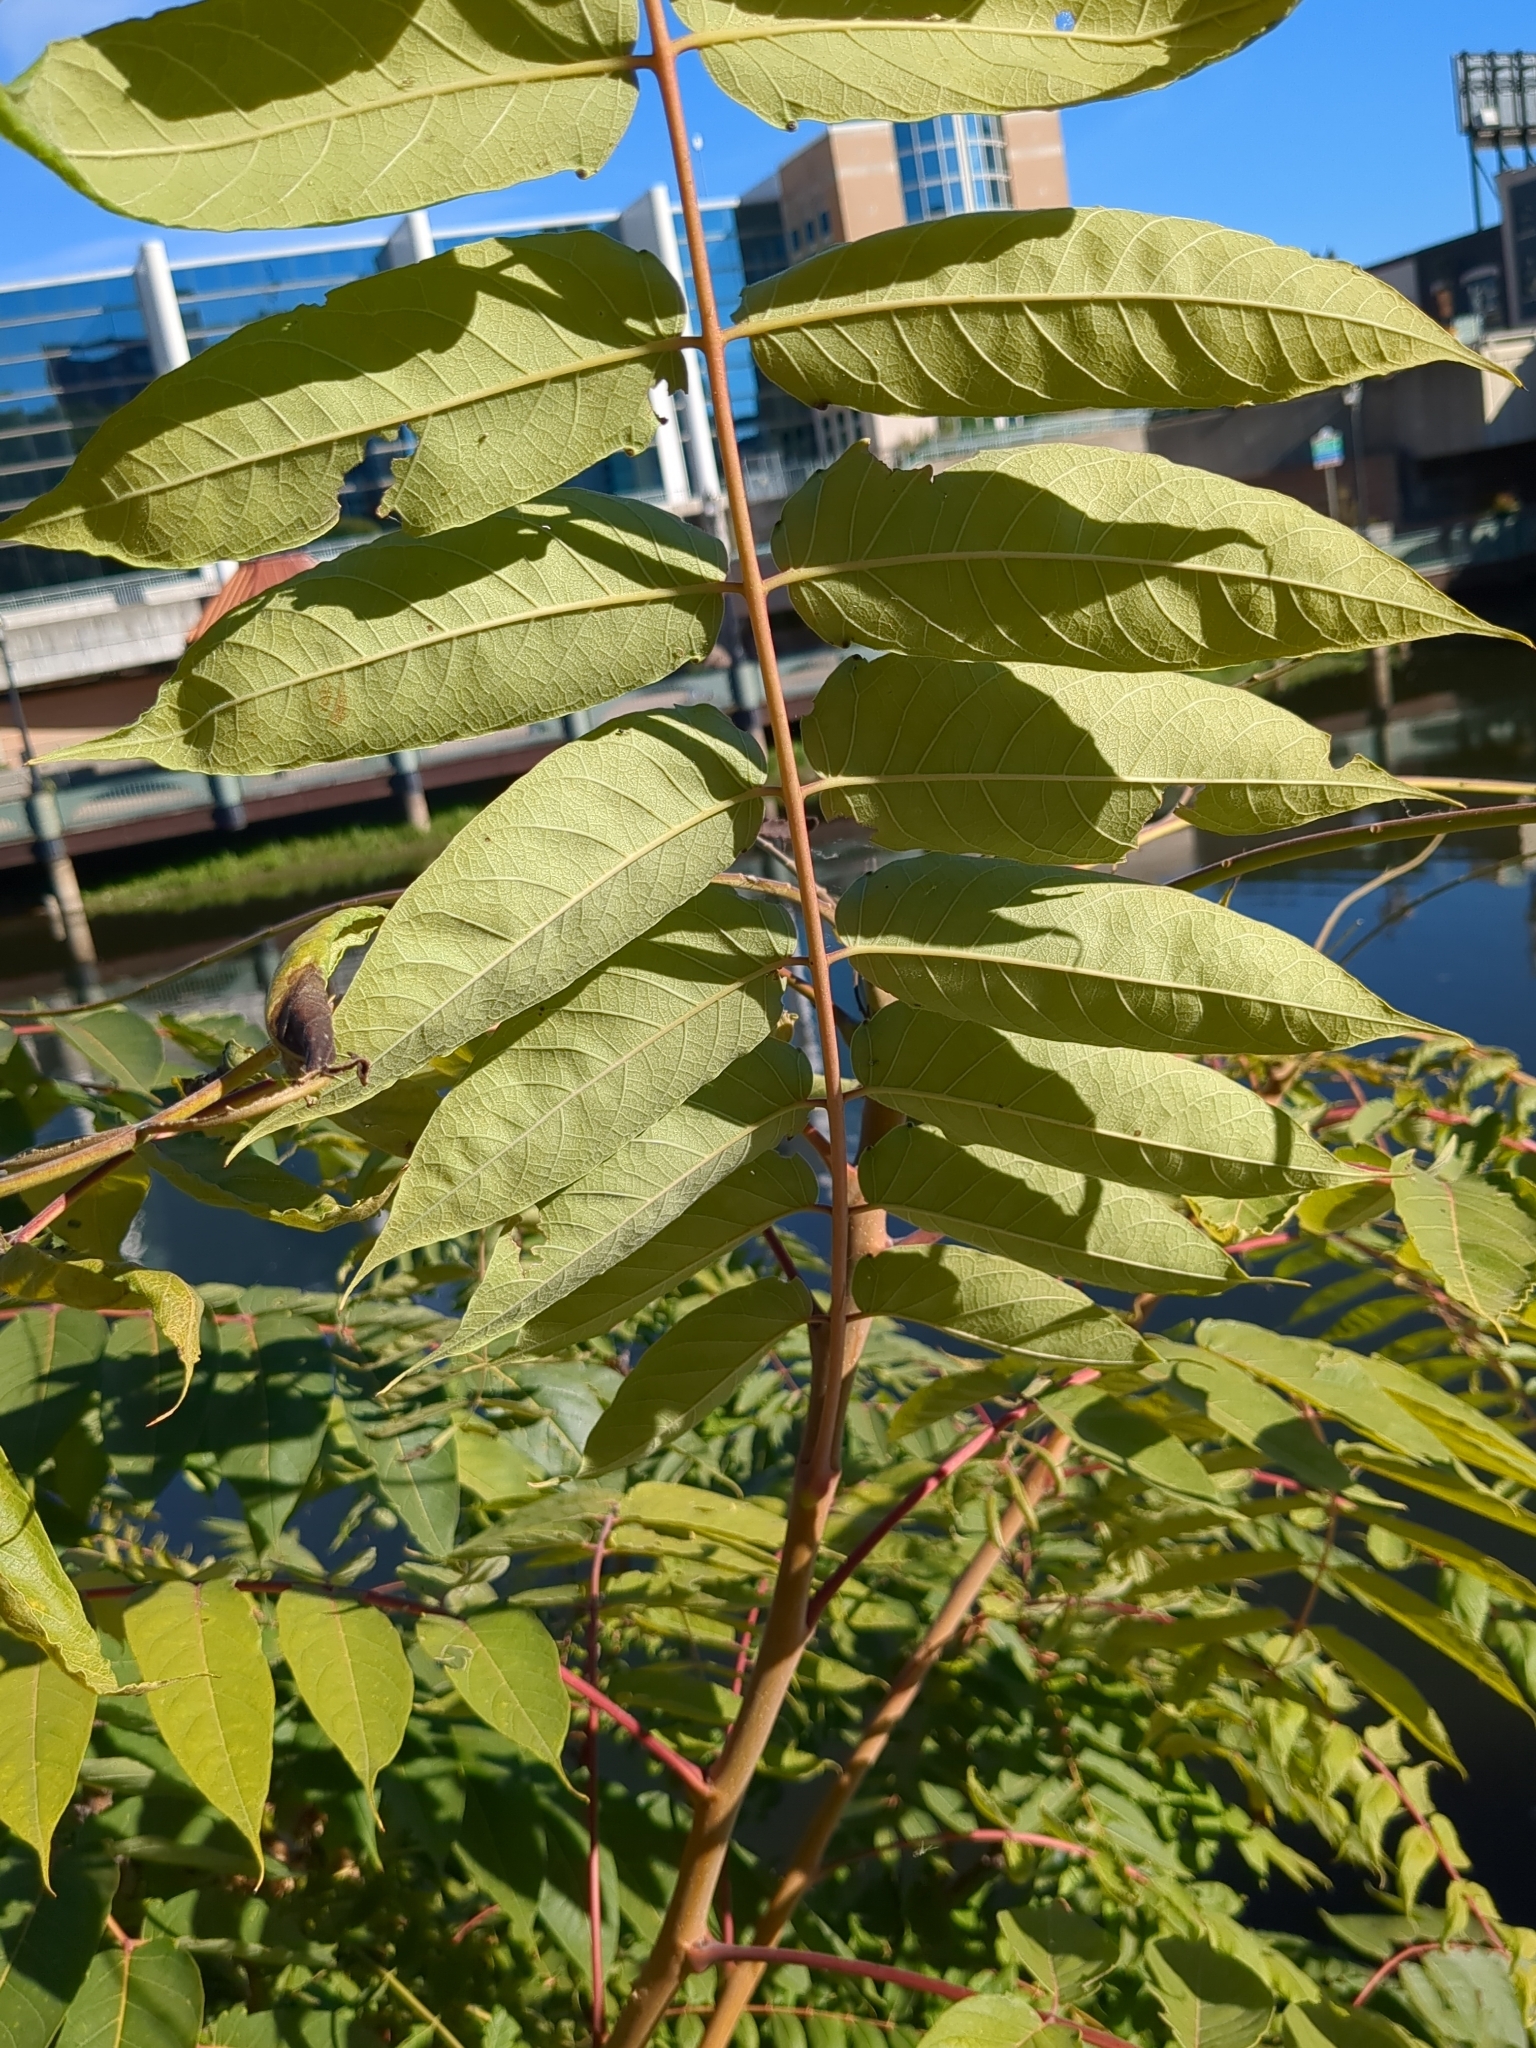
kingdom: Plantae
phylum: Tracheophyta
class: Magnoliopsida
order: Sapindales
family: Simaroubaceae
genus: Ailanthus
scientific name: Ailanthus altissima
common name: Tree-of-heaven
